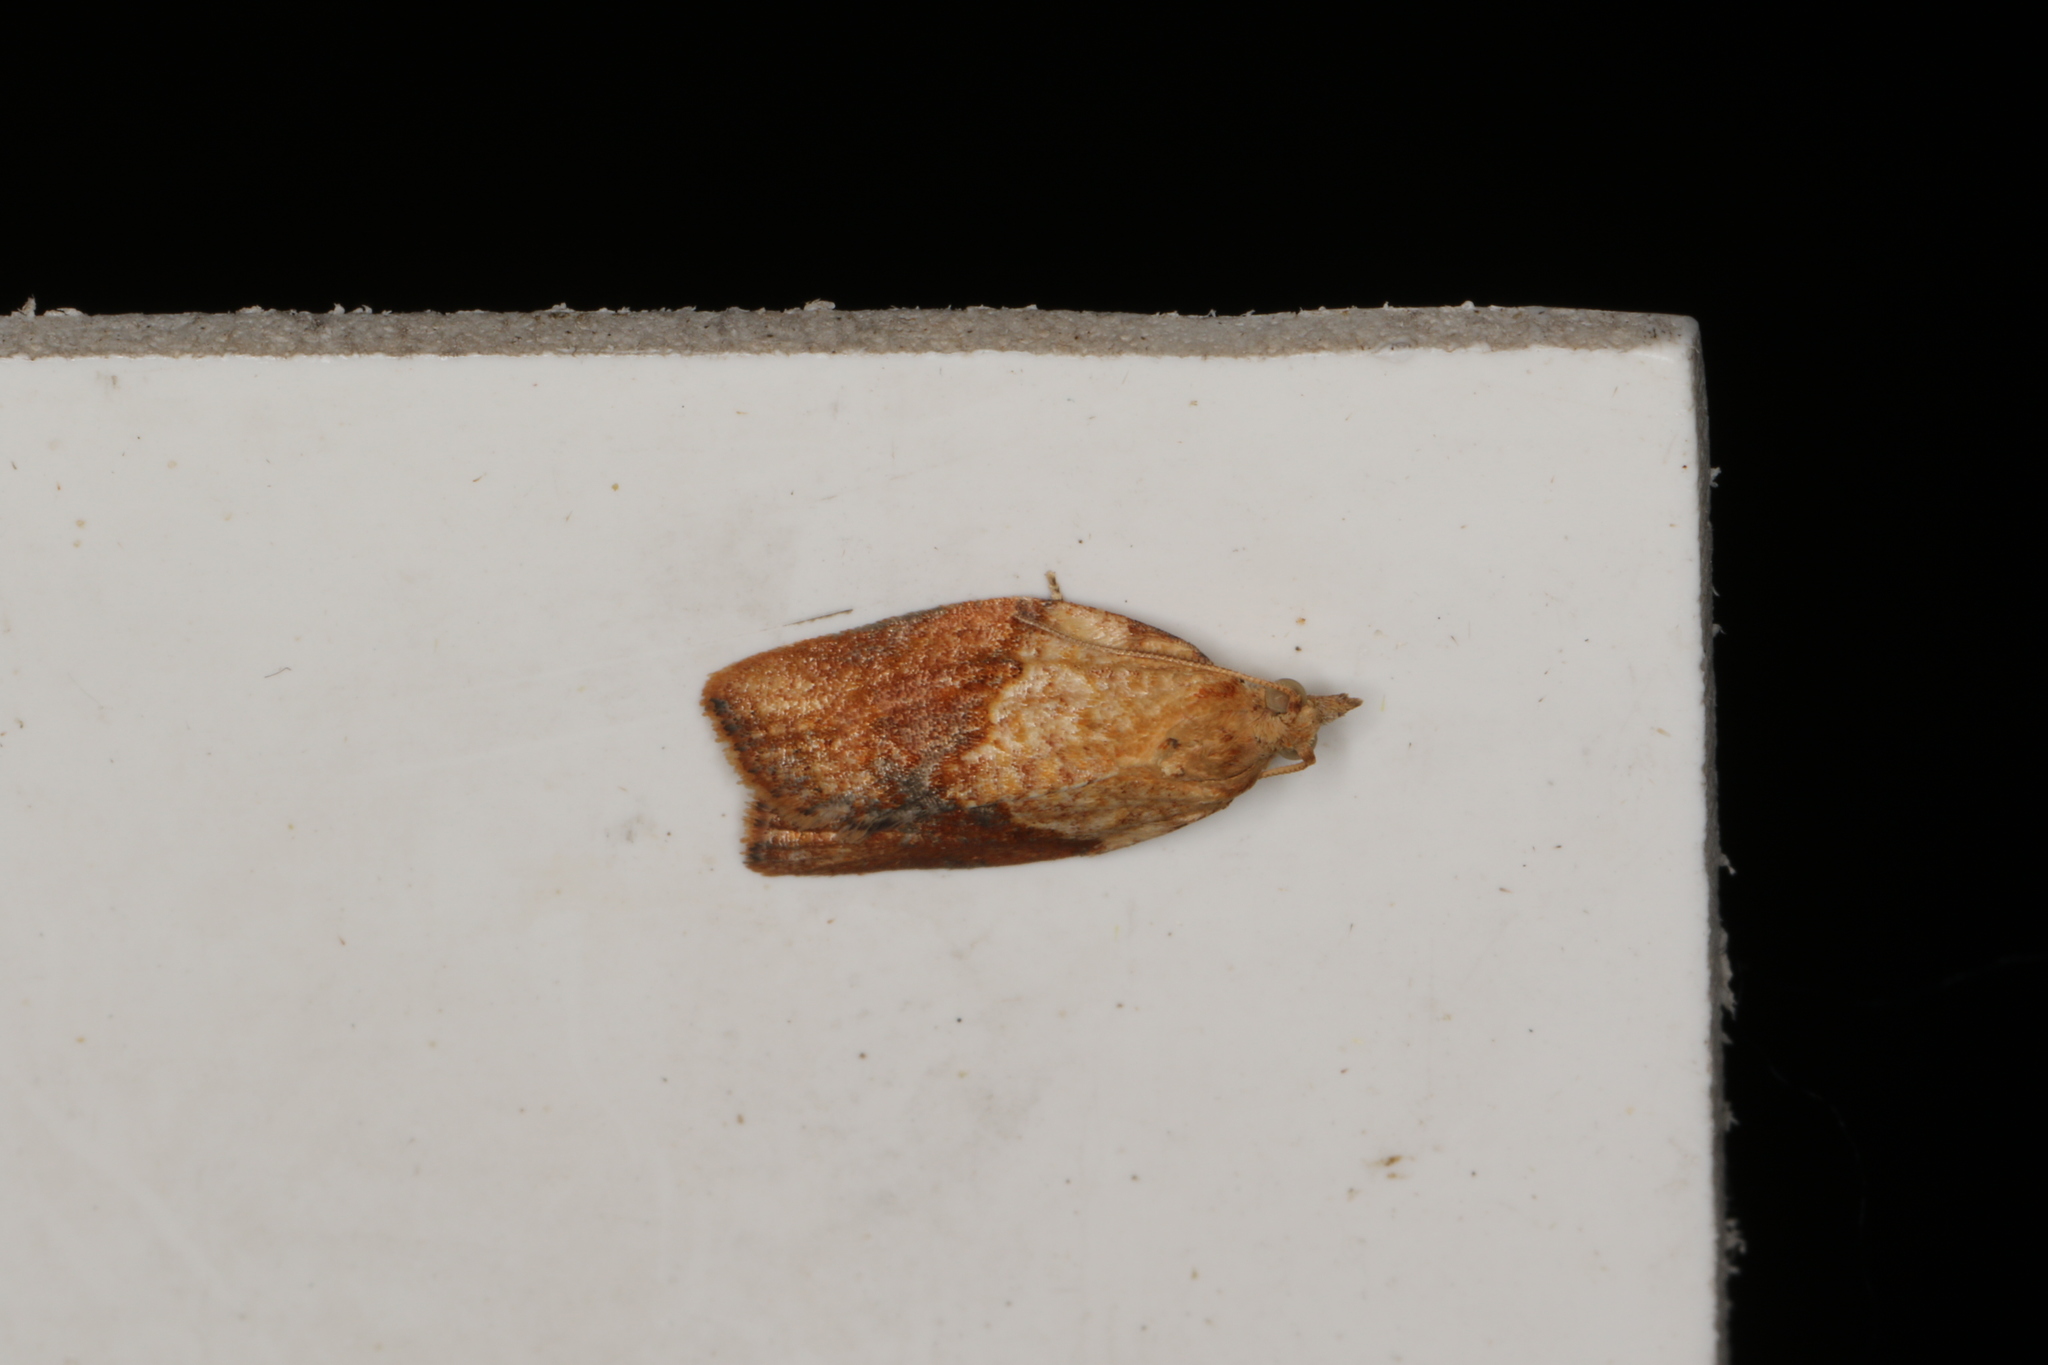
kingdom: Animalia
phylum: Arthropoda
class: Insecta
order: Lepidoptera
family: Tortricidae
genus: Epiphyas
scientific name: Epiphyas postvittana
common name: Light brown apple moth
